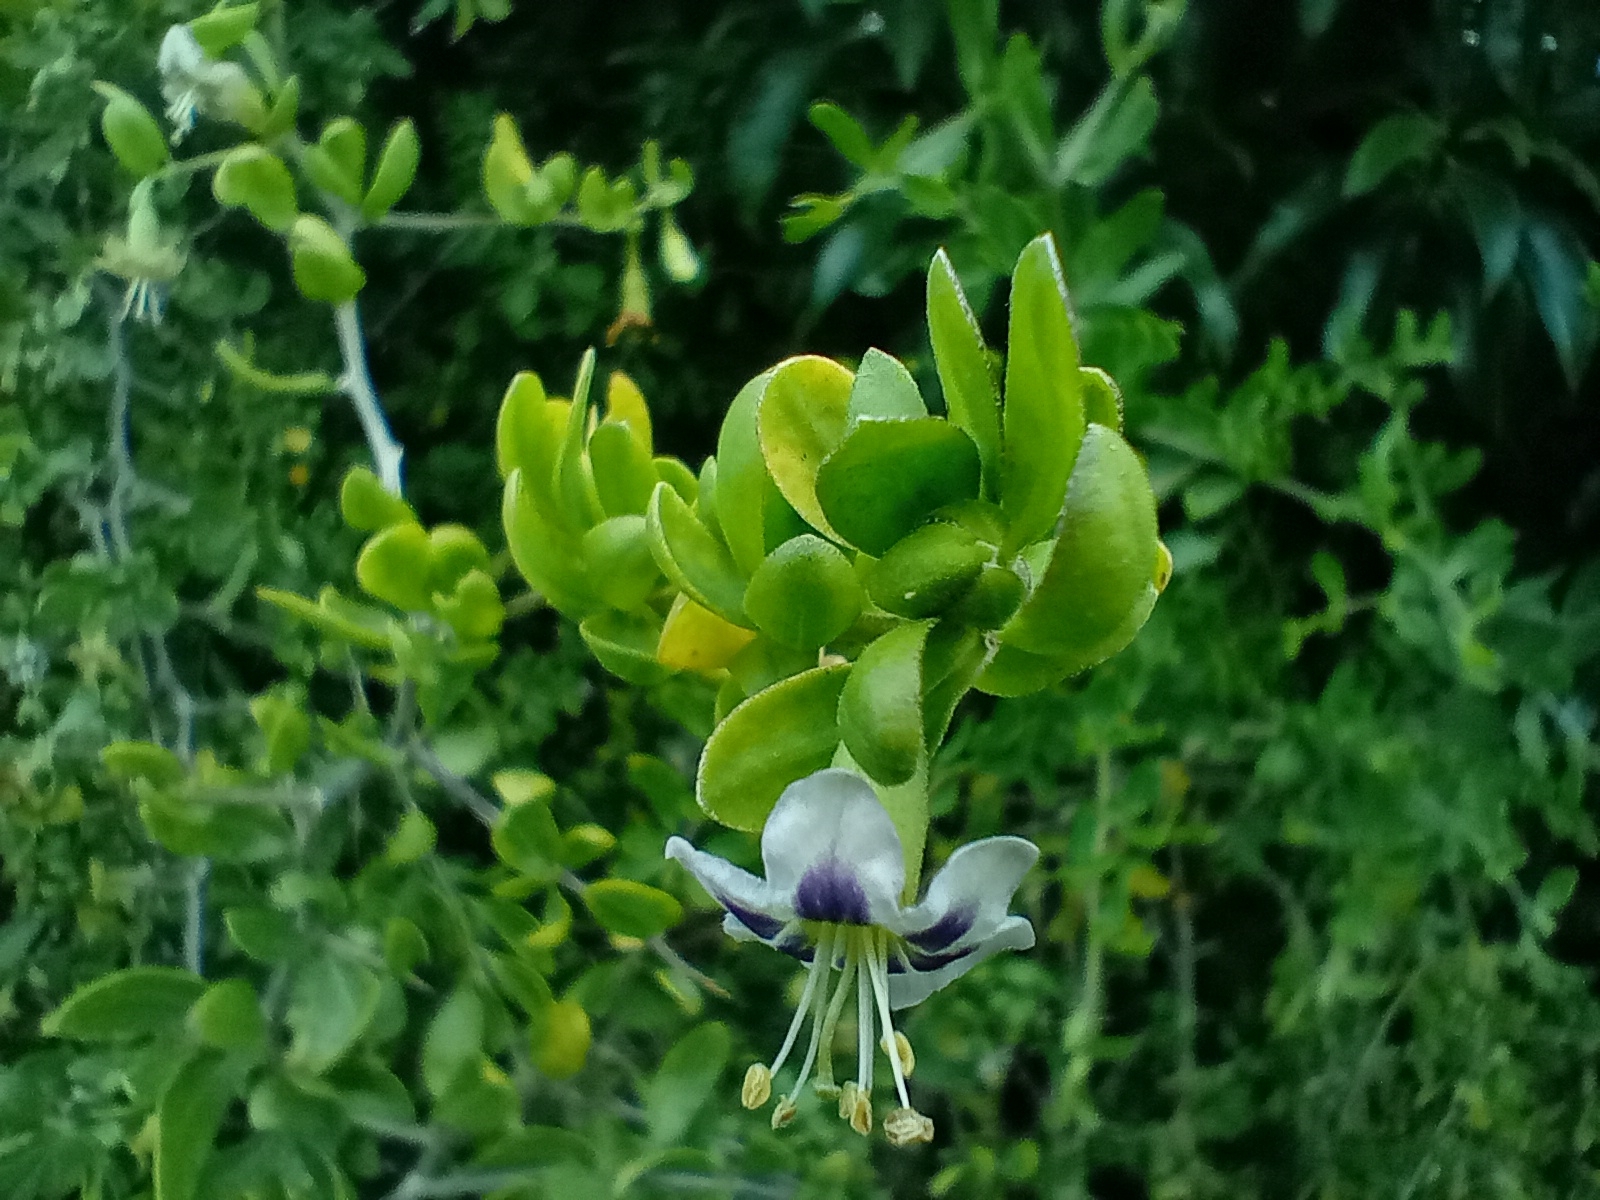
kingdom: Plantae
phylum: Tracheophyta
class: Magnoliopsida
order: Solanales
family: Solanaceae
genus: Lycium
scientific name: Lycium ferocissimum
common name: African boxthorn
